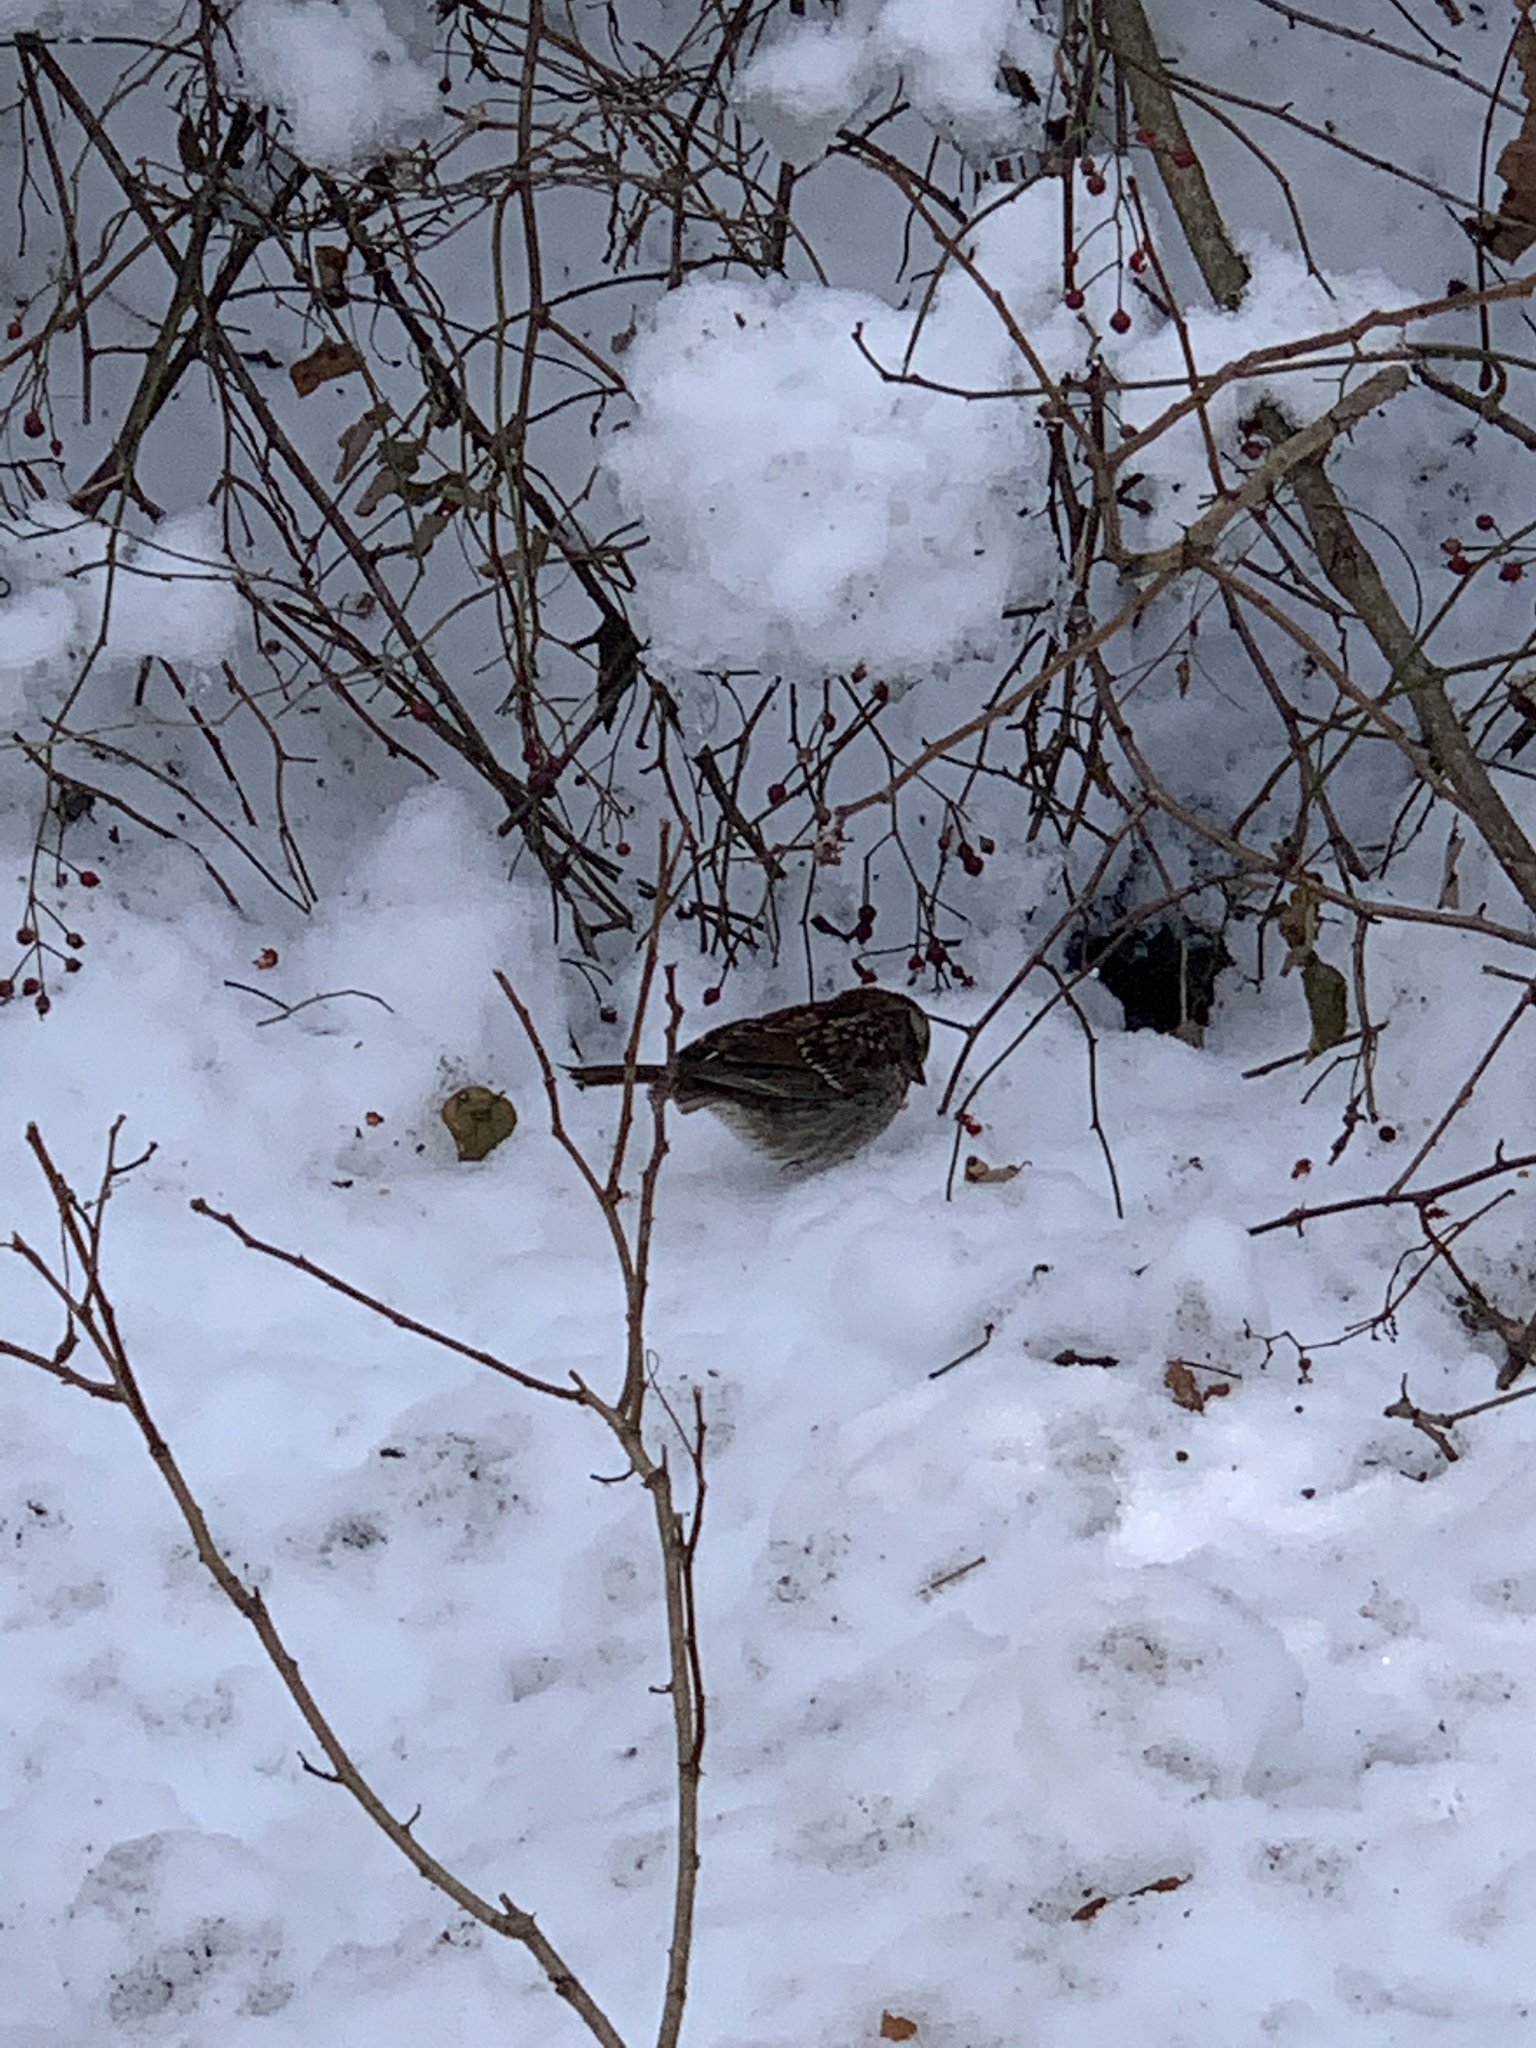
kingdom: Animalia
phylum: Chordata
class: Aves
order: Passeriformes
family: Passerellidae
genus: Zonotrichia
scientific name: Zonotrichia albicollis
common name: White-throated sparrow
